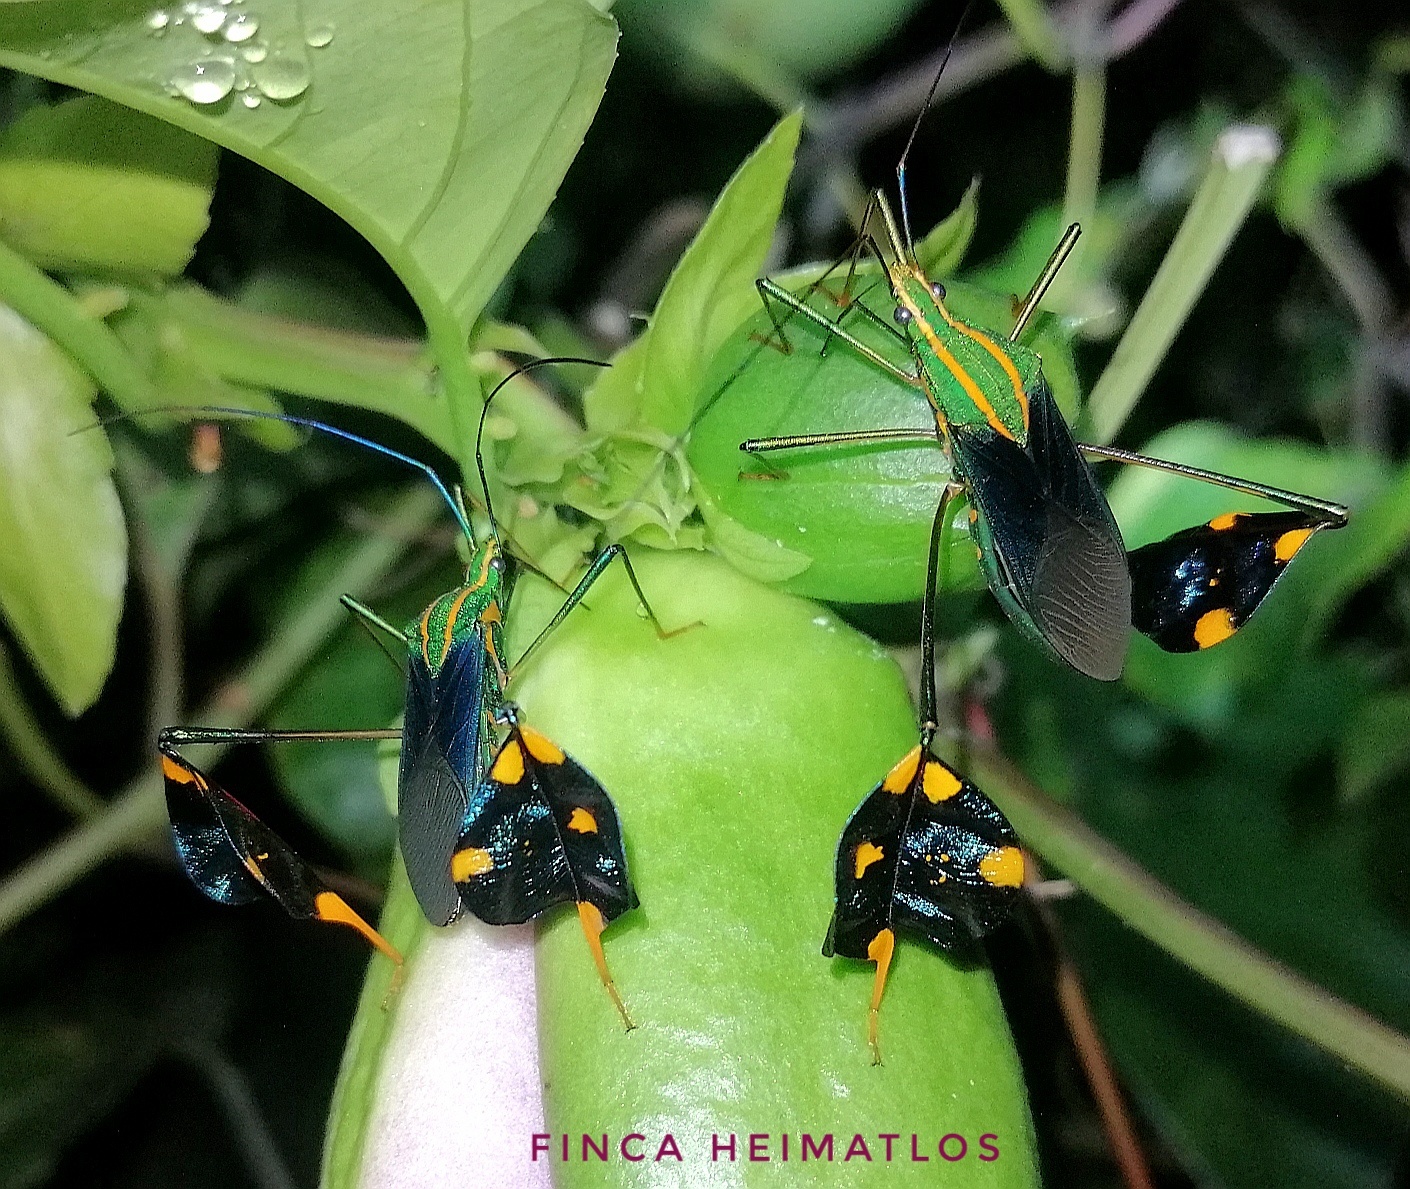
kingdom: Animalia
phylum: Arthropoda
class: Insecta
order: Hemiptera
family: Coreidae
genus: Diactor
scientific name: Diactor bilineatus
